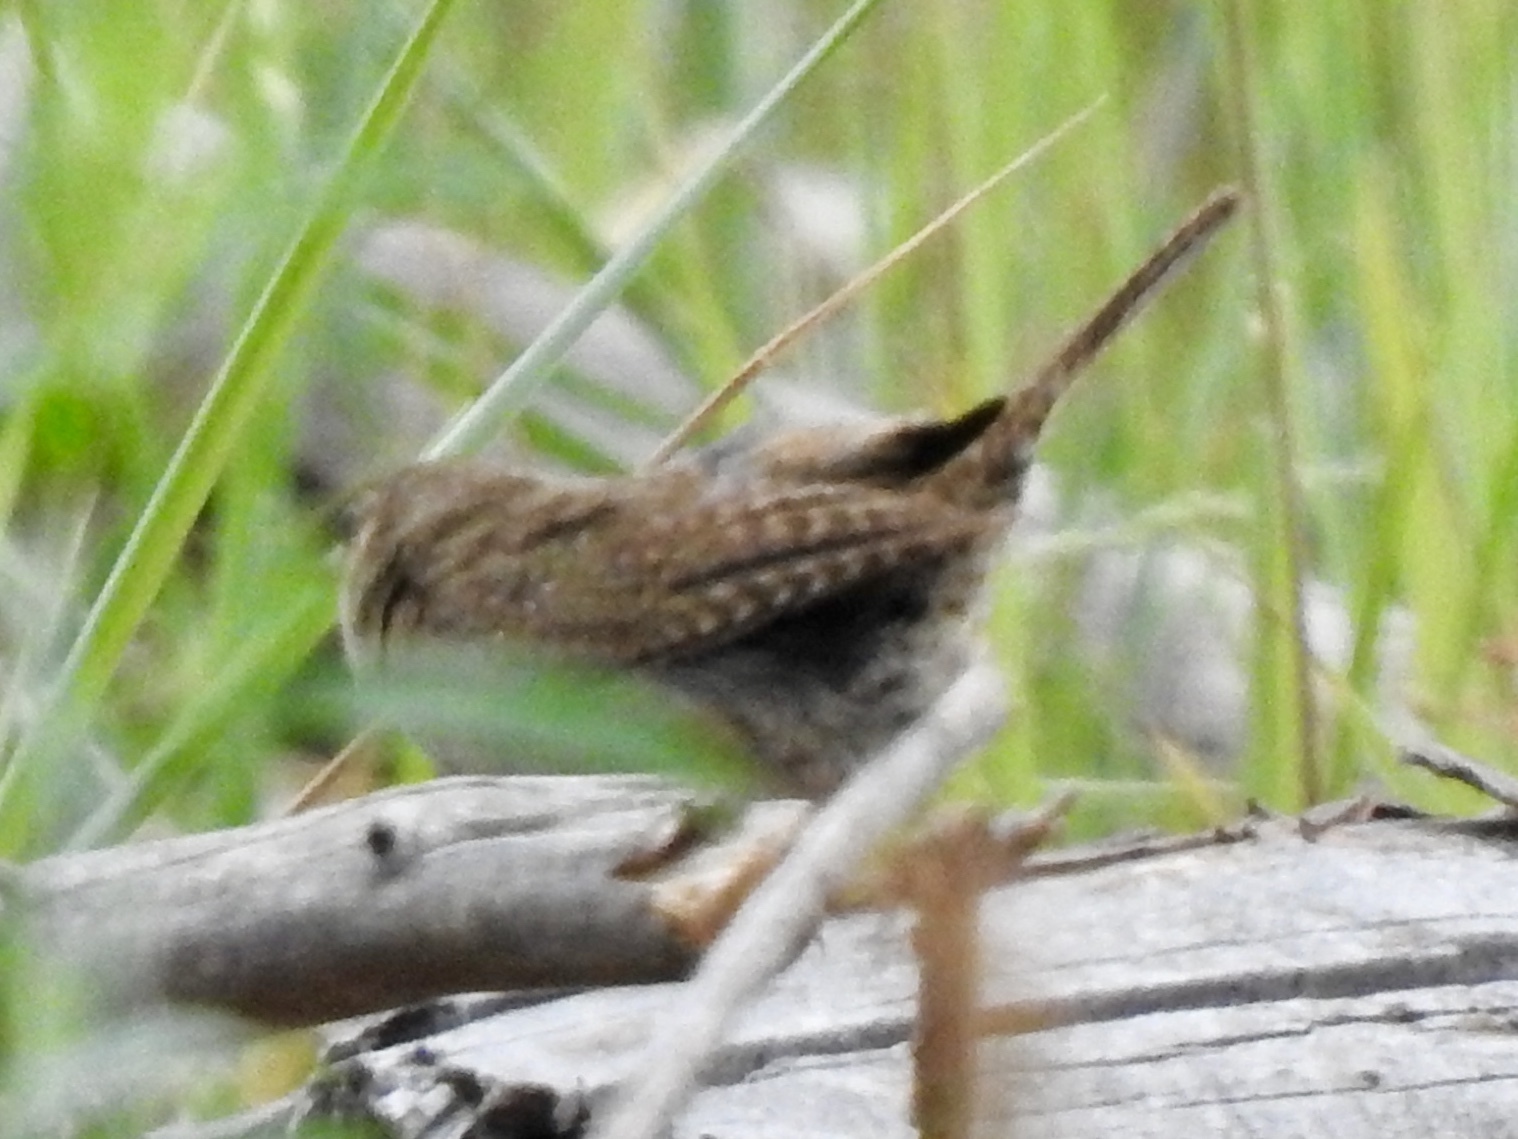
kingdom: Animalia
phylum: Chordata
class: Aves
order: Passeriformes
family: Troglodytidae
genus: Troglodytes
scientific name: Troglodytes aedon
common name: House wren
